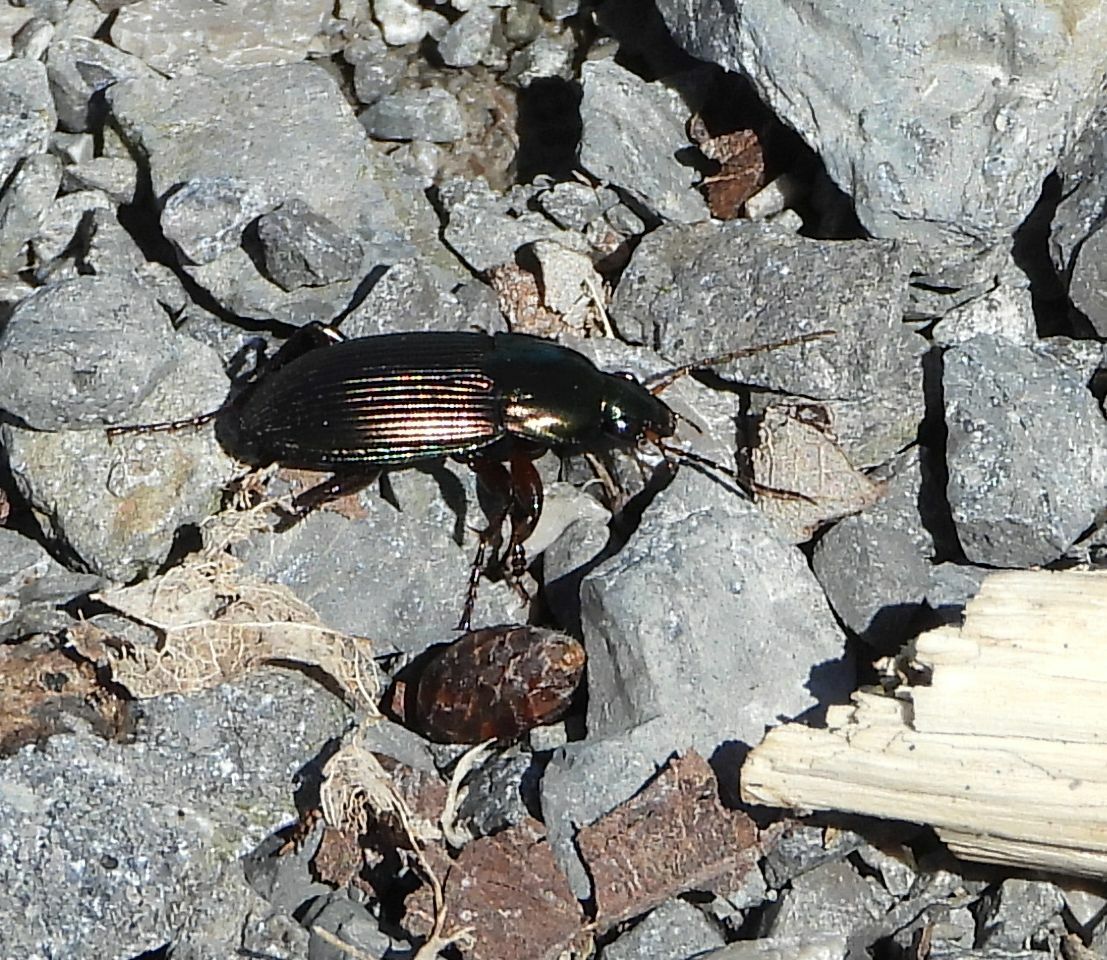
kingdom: Animalia
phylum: Arthropoda
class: Insecta
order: Coleoptera
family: Carabidae
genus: Poecilus
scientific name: Poecilus lucublandus
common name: Woodland ground beetle
